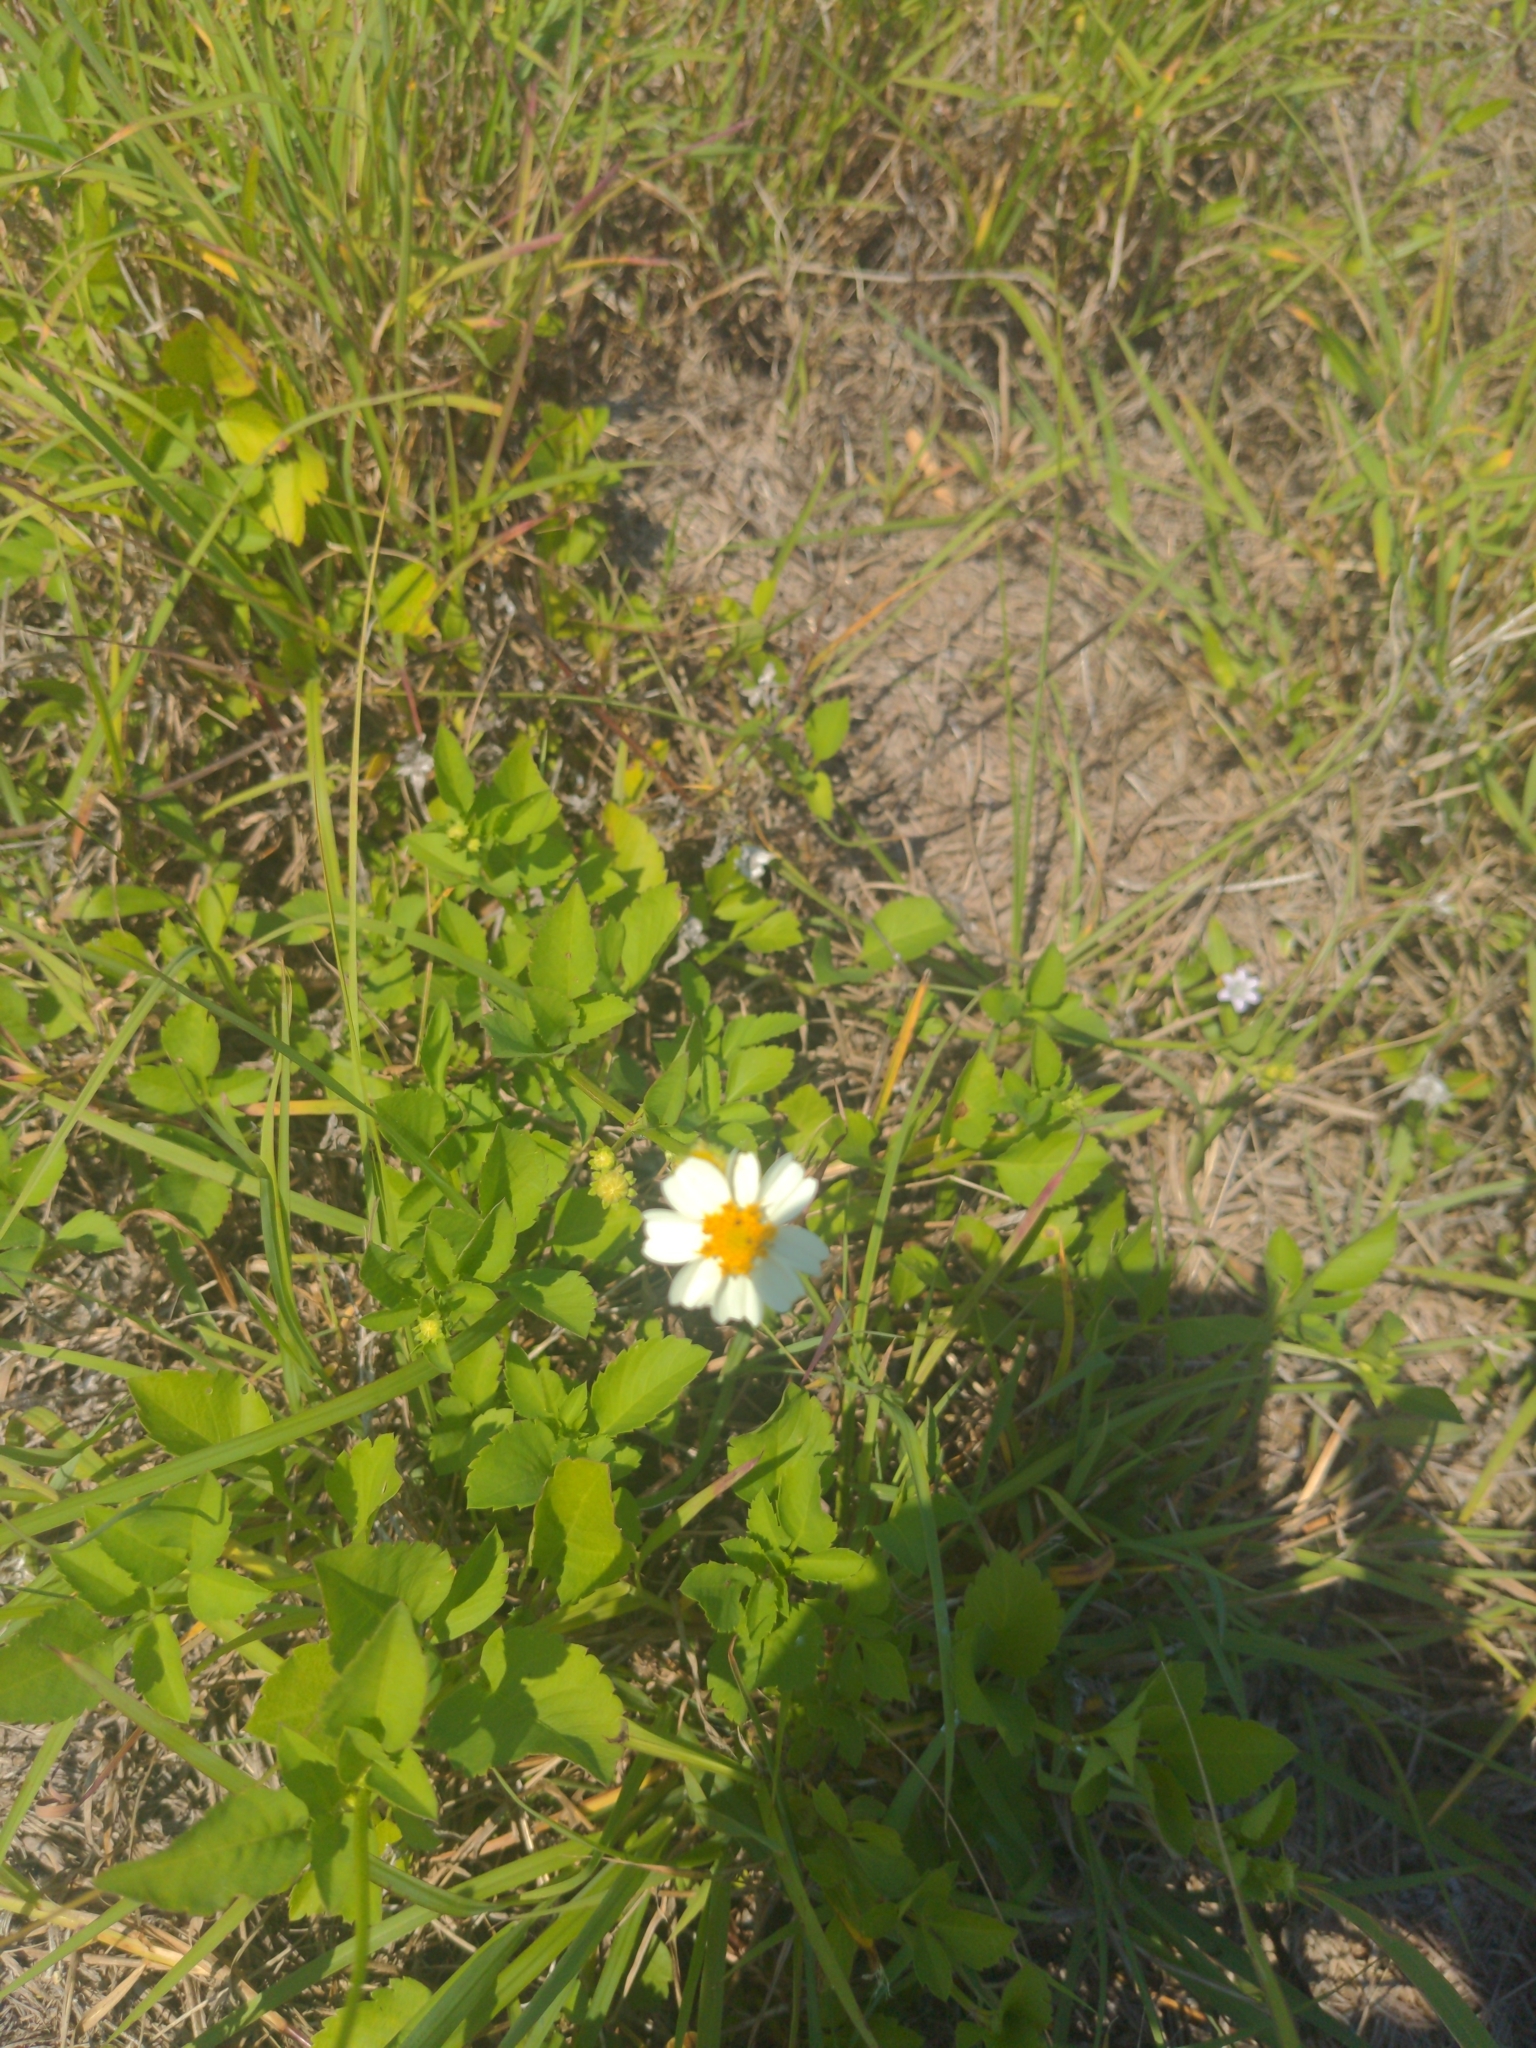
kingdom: Plantae
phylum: Tracheophyta
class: Magnoliopsida
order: Asterales
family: Asteraceae
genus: Bidens
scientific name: Bidens alba
